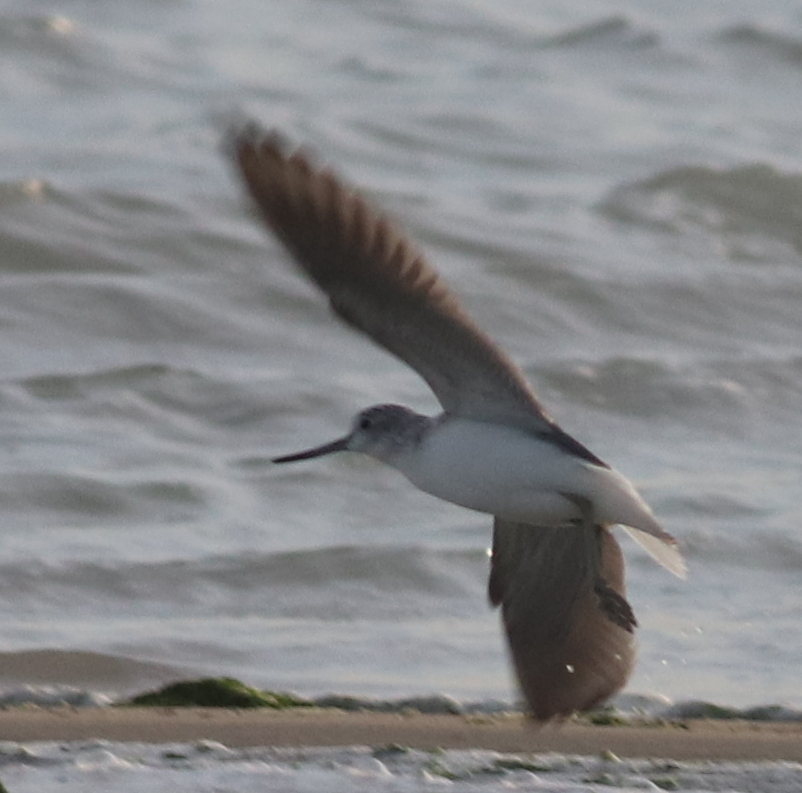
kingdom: Animalia
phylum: Chordata
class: Aves
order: Charadriiformes
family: Scolopacidae
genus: Tringa
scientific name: Tringa nebularia
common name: Common greenshank
